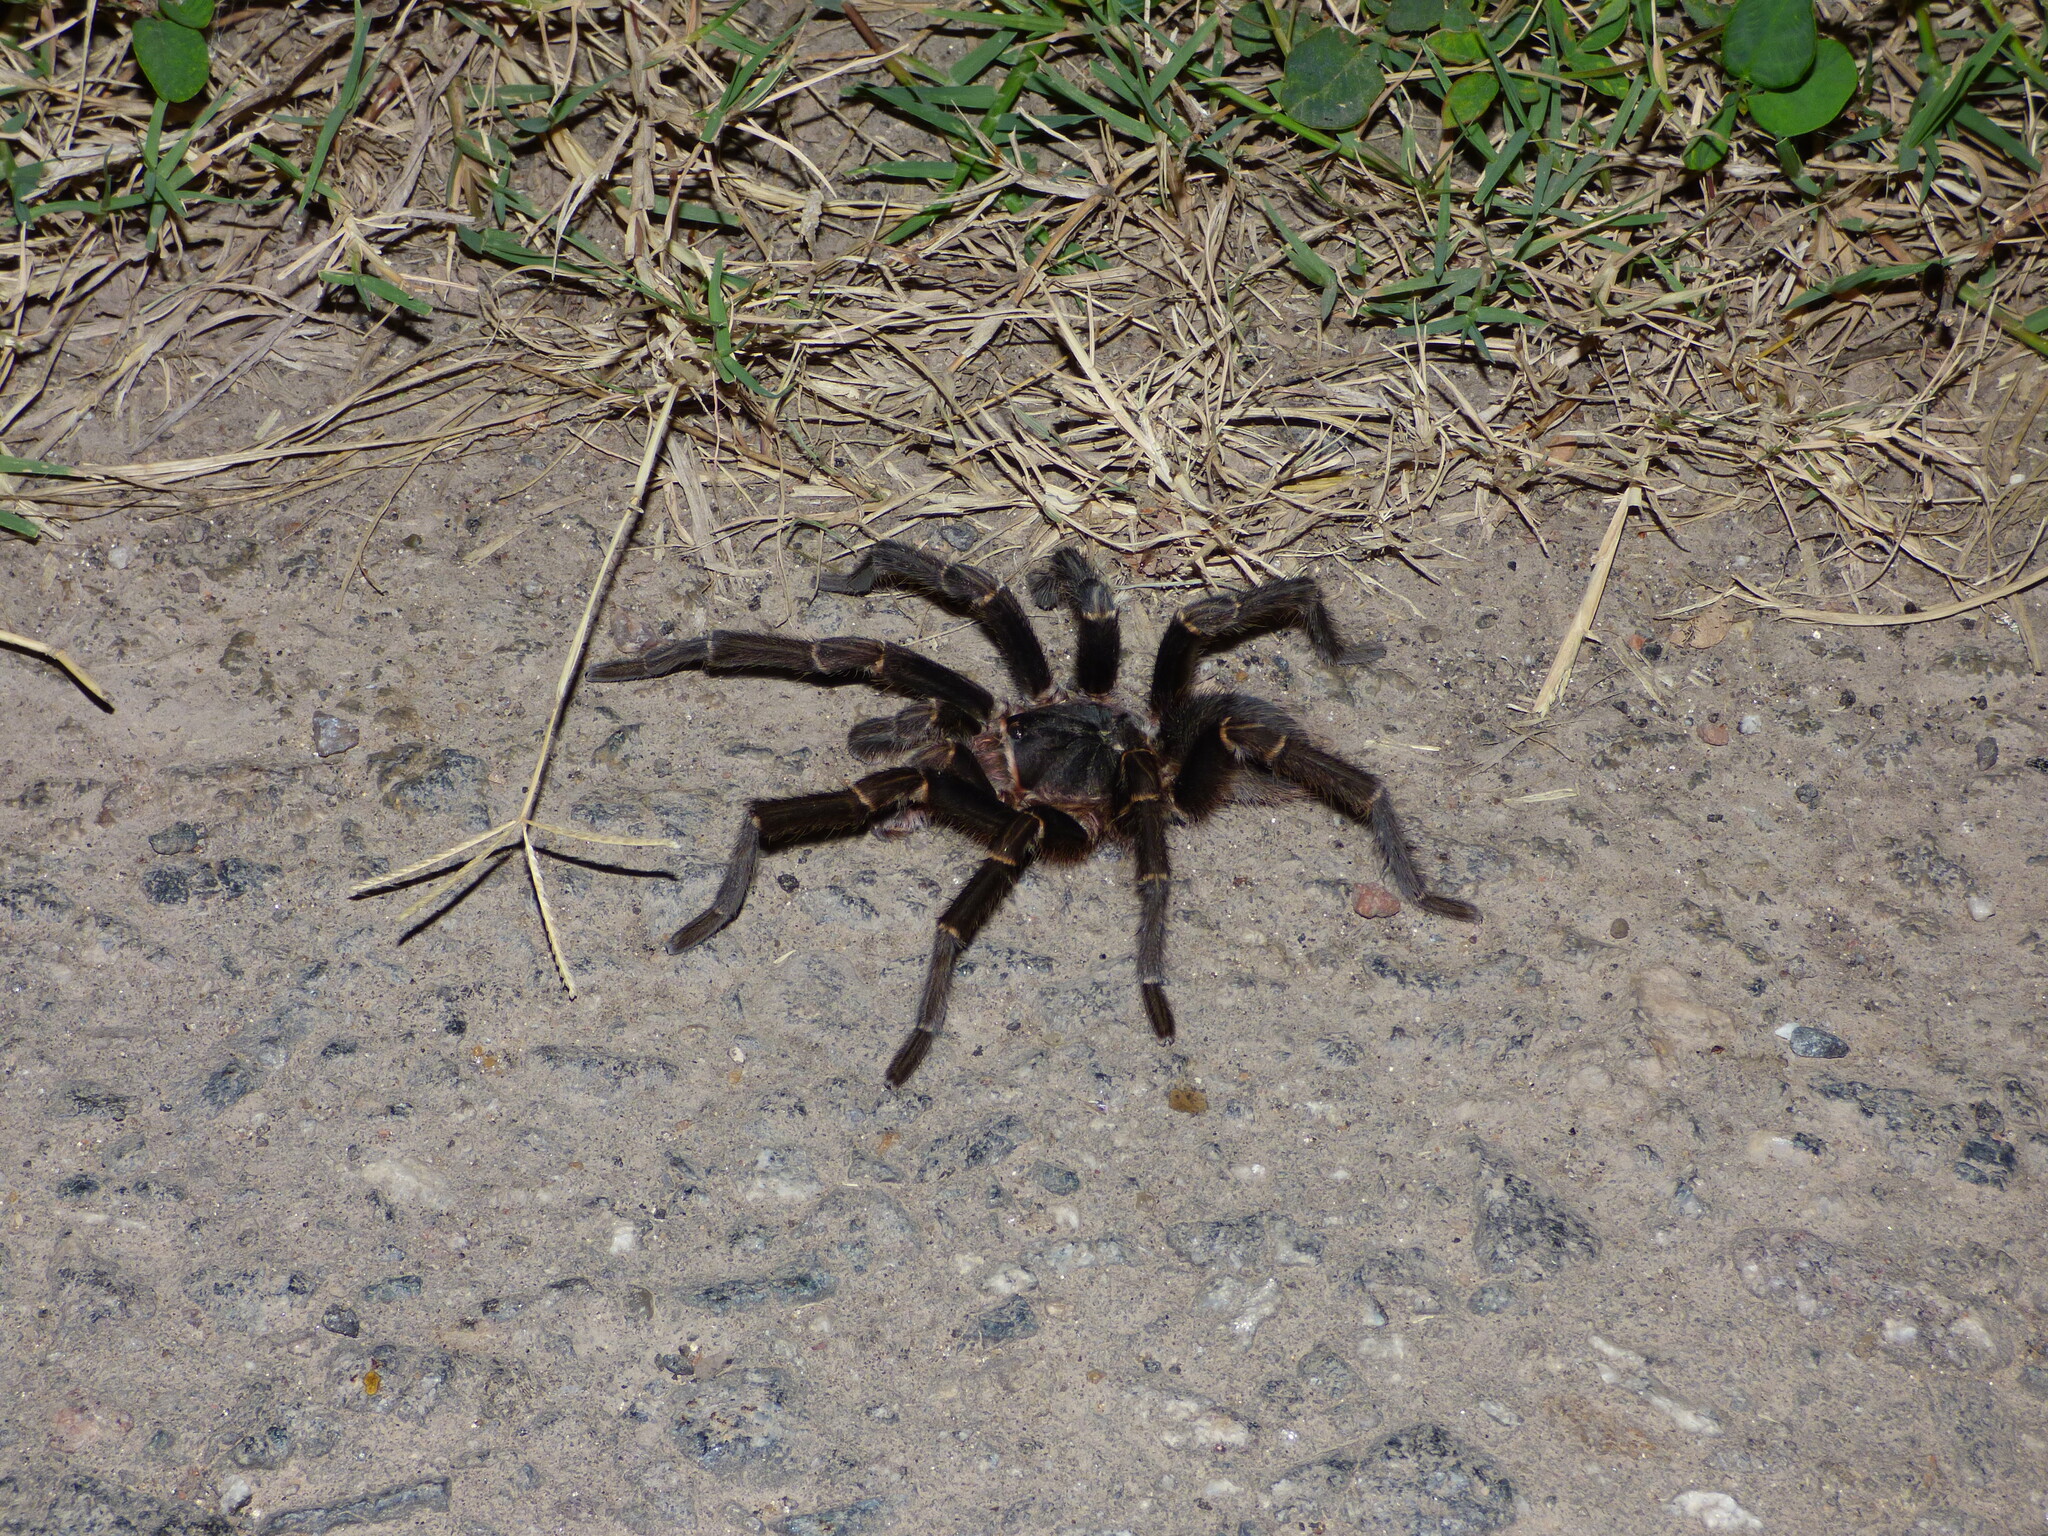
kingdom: Animalia
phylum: Arthropoda
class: Arachnida
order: Araneae
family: Theraphosidae
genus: Acanthoscurria
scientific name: Acanthoscurria cordubensis
